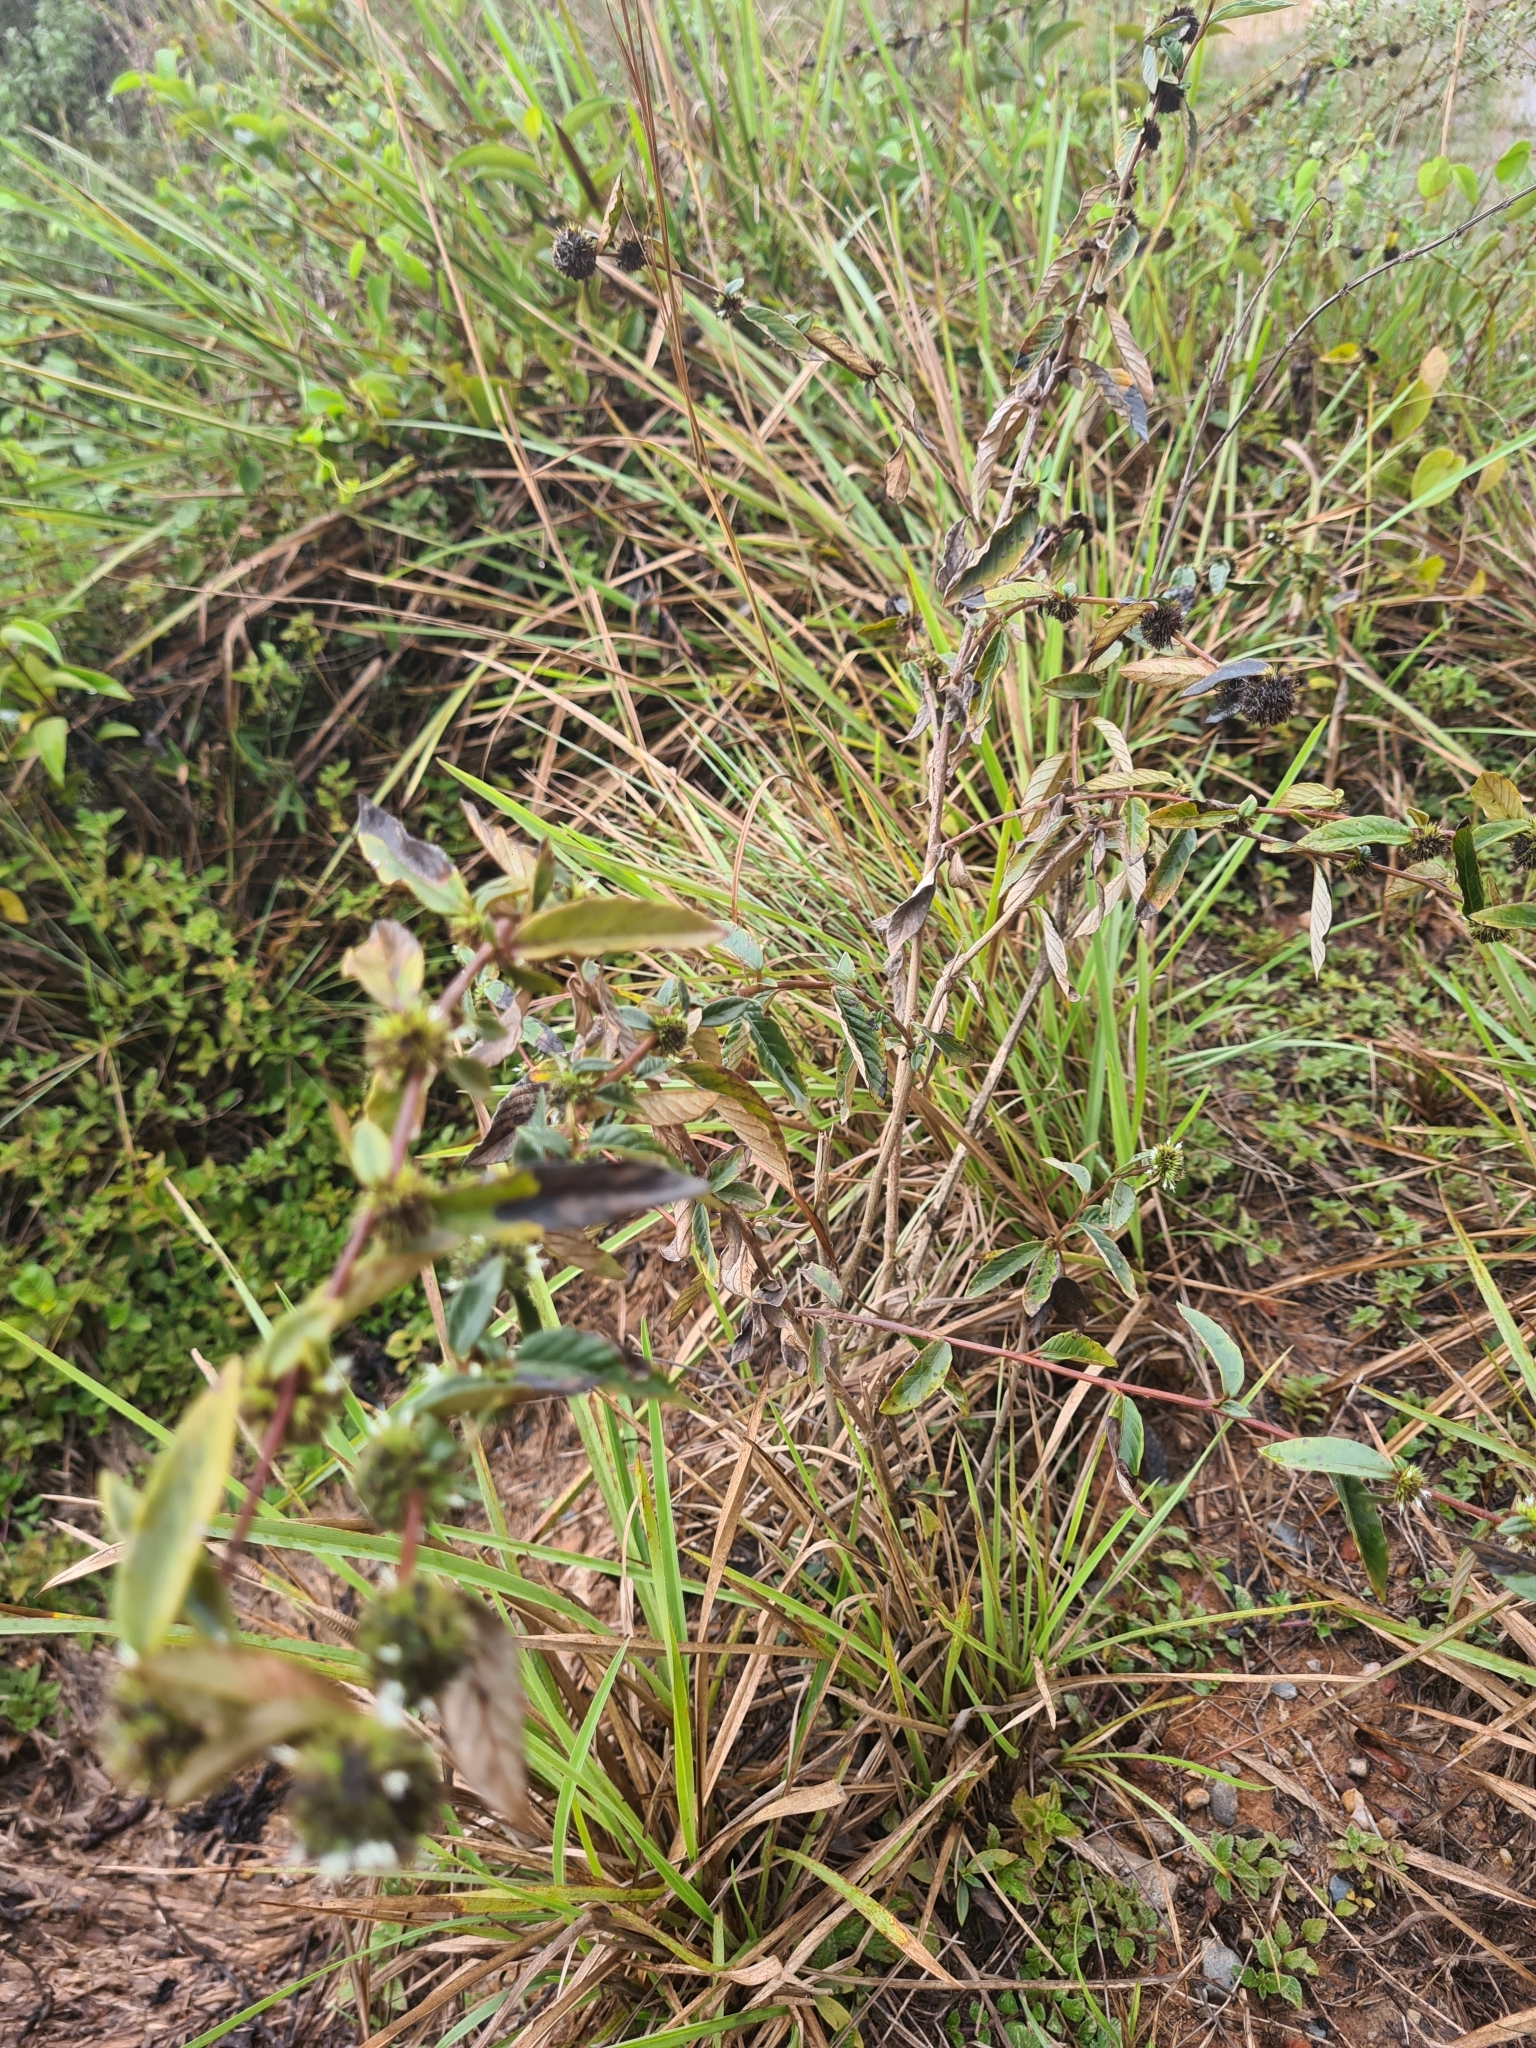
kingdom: Plantae
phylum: Tracheophyta
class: Magnoliopsida
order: Asterales
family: Asteraceae
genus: Rolandra
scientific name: Rolandra fruticosa
